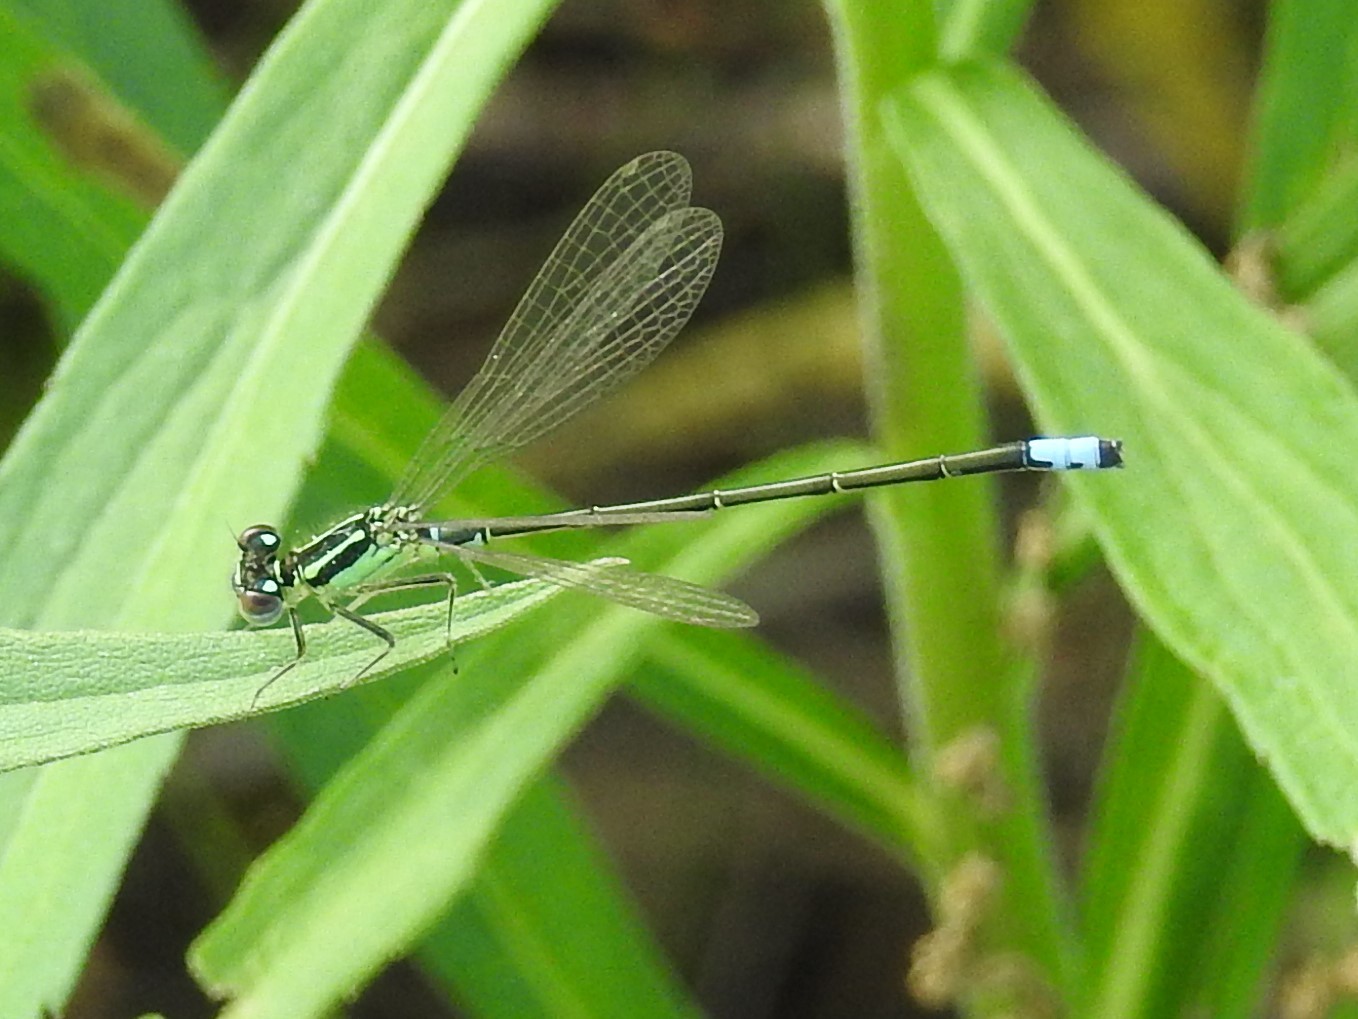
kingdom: Animalia
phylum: Arthropoda
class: Insecta
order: Odonata
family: Coenagrionidae
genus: Ischnura
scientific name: Ischnura verticalis
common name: Eastern forktail
